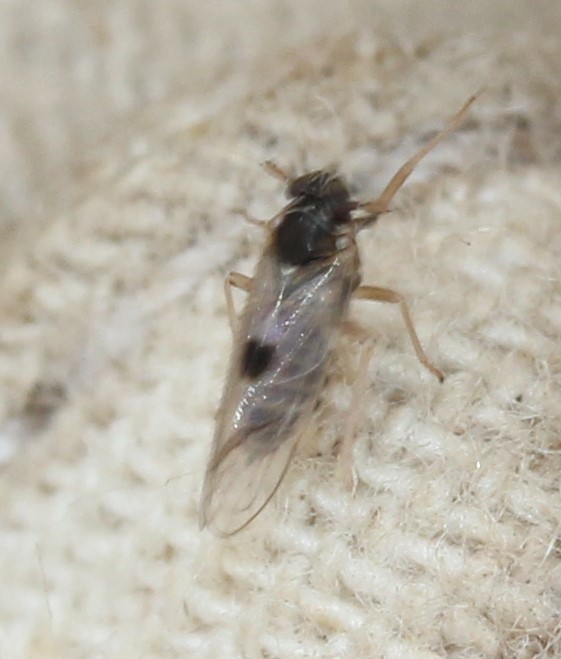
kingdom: Animalia
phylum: Arthropoda
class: Insecta
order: Hemiptera
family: Delphacidae
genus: Chionomus
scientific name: Chionomus
